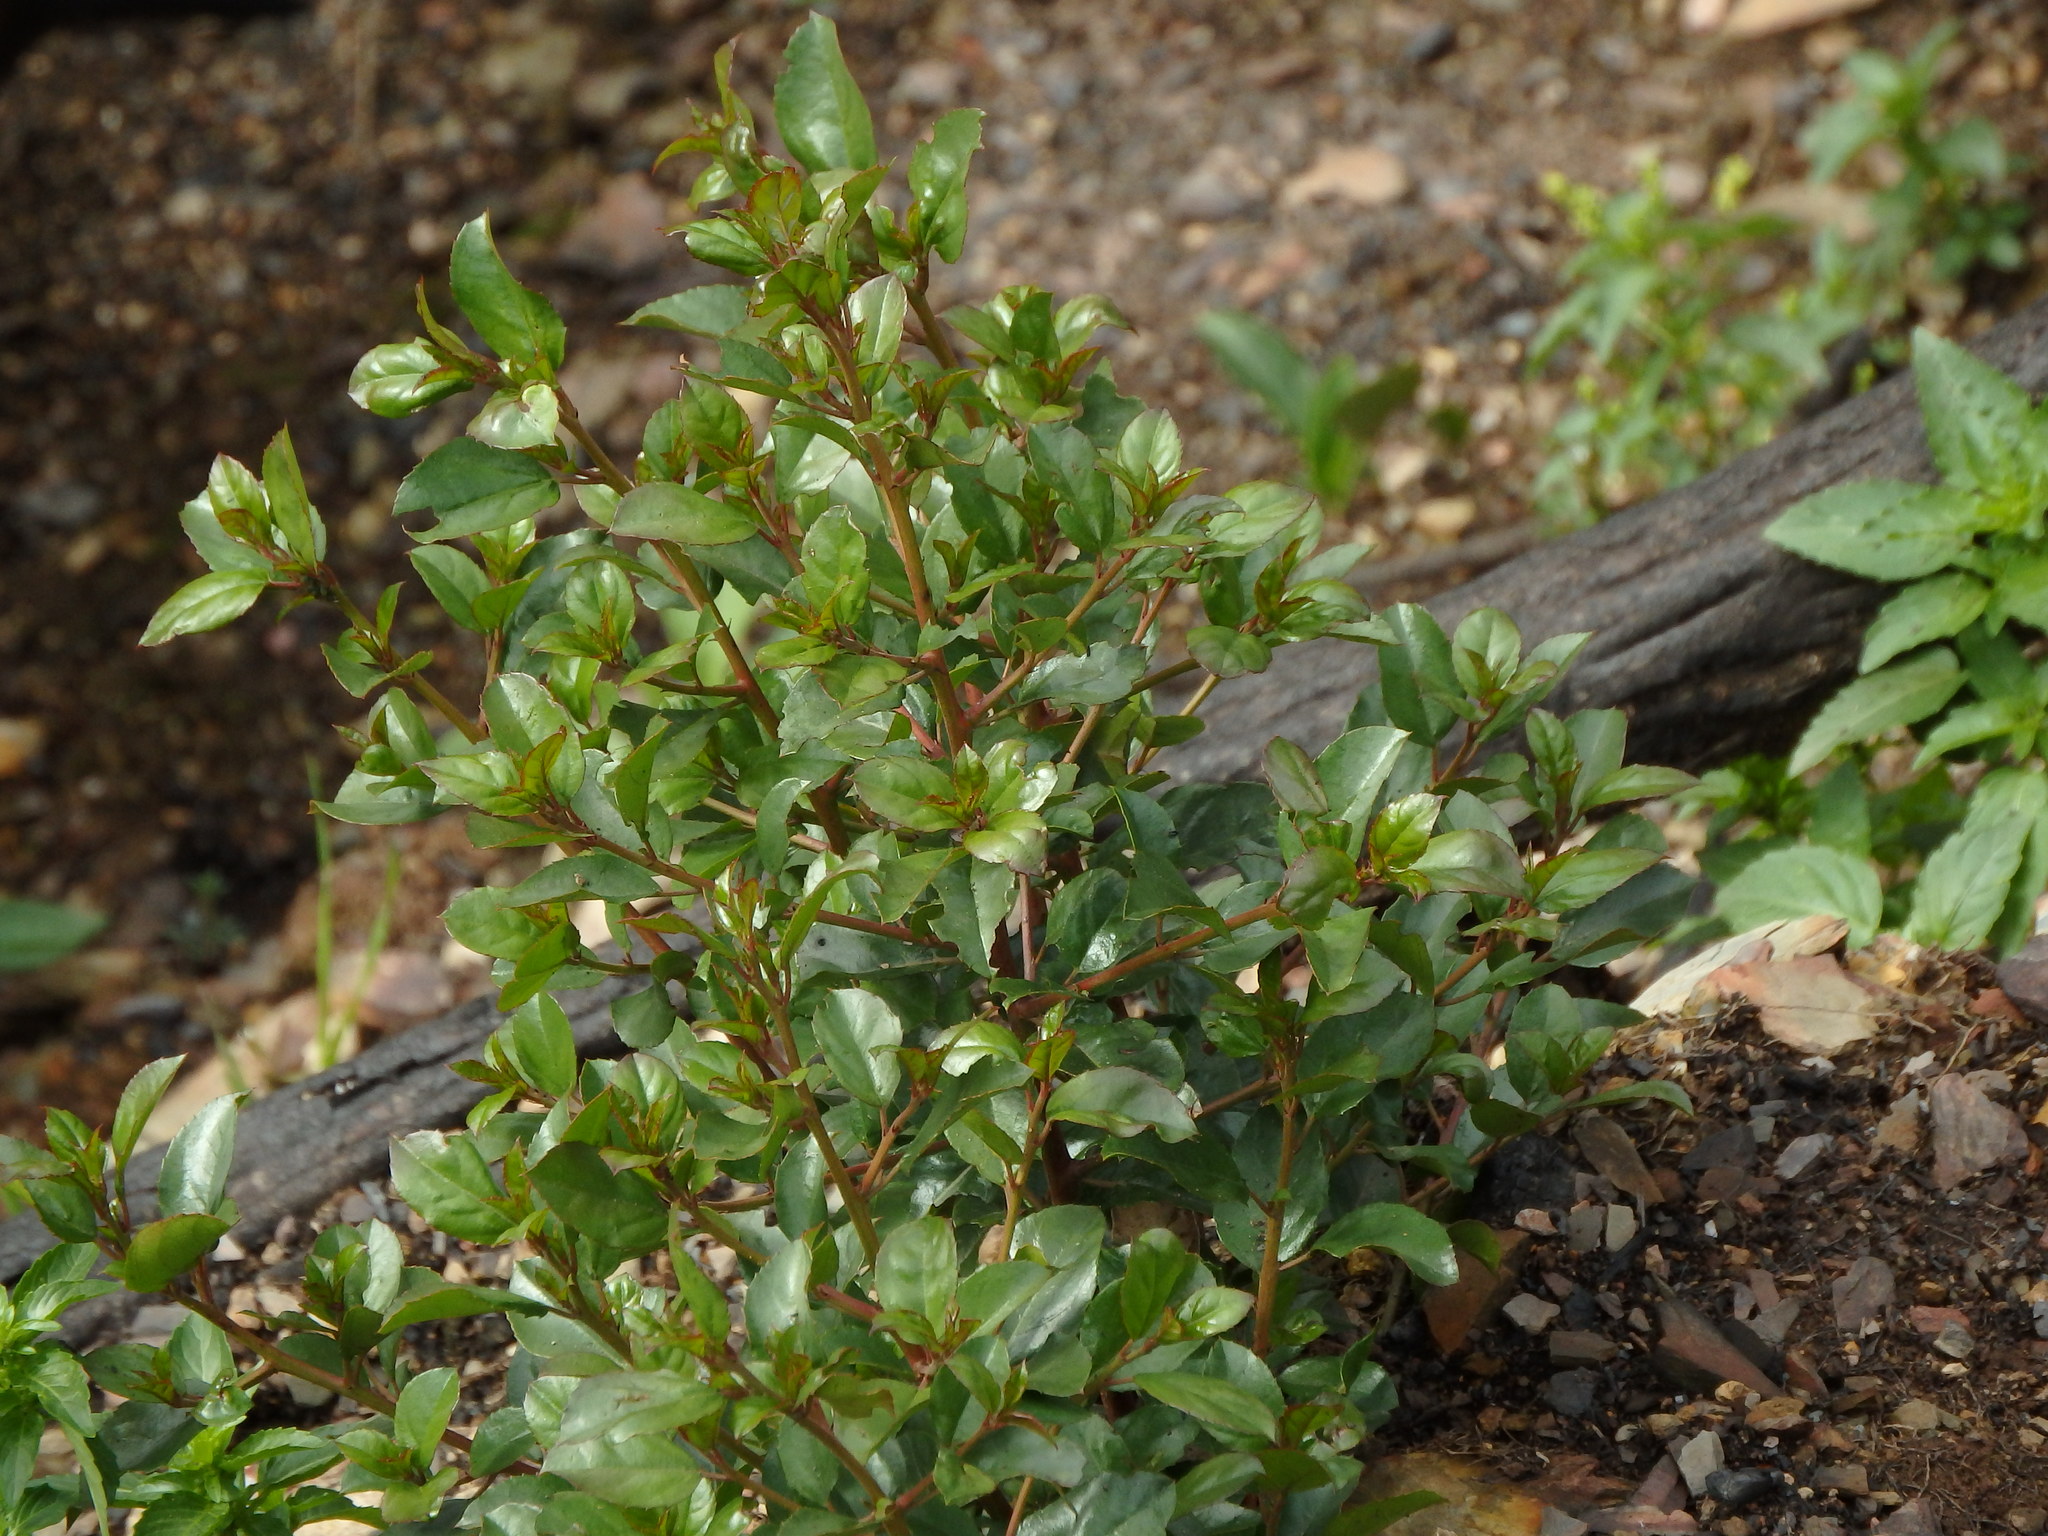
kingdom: Plantae
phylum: Tracheophyta
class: Magnoliopsida
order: Rosales
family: Rhamnaceae
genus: Rhamnus
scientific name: Rhamnus alaternus
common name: Mediterranean buckthorn
